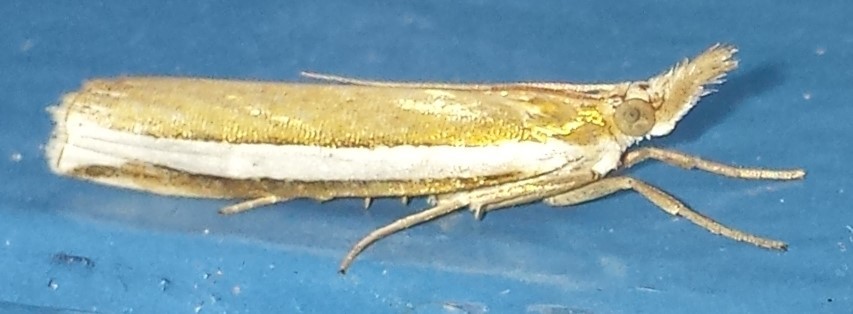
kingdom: Animalia
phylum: Arthropoda
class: Insecta
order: Lepidoptera
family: Crambidae
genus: Crambus
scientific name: Crambus unistriatellus
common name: Wide-stripe grass-veneer moth
